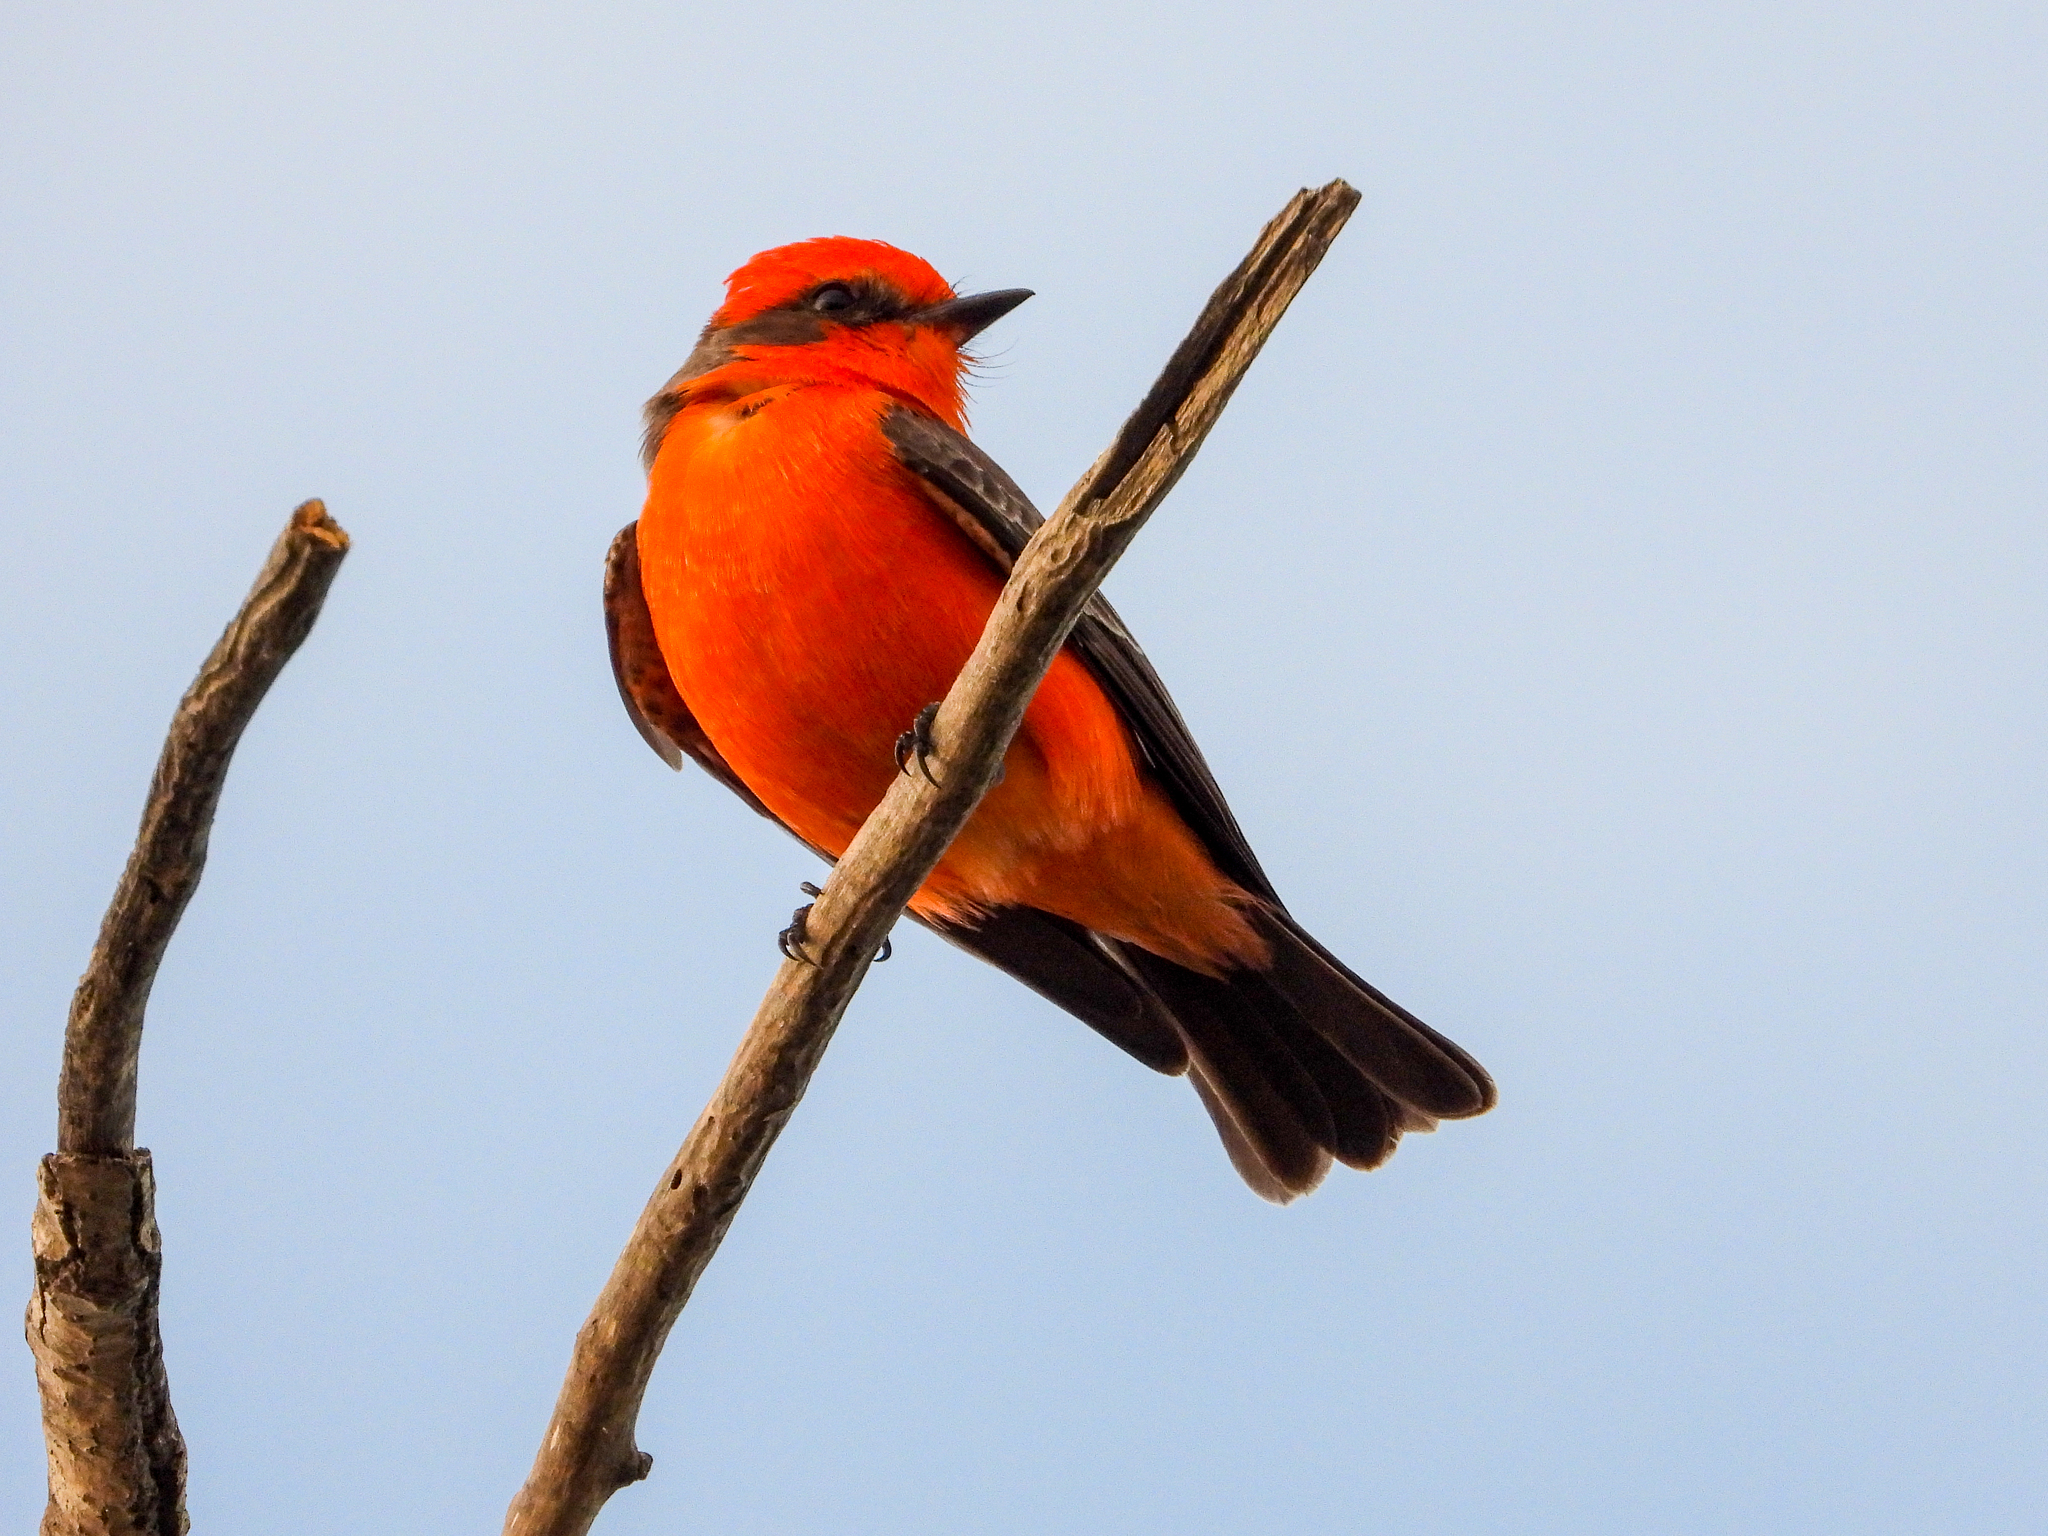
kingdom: Animalia
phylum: Chordata
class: Aves
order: Passeriformes
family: Tyrannidae
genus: Pyrocephalus
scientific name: Pyrocephalus rubinus
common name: Vermilion flycatcher
